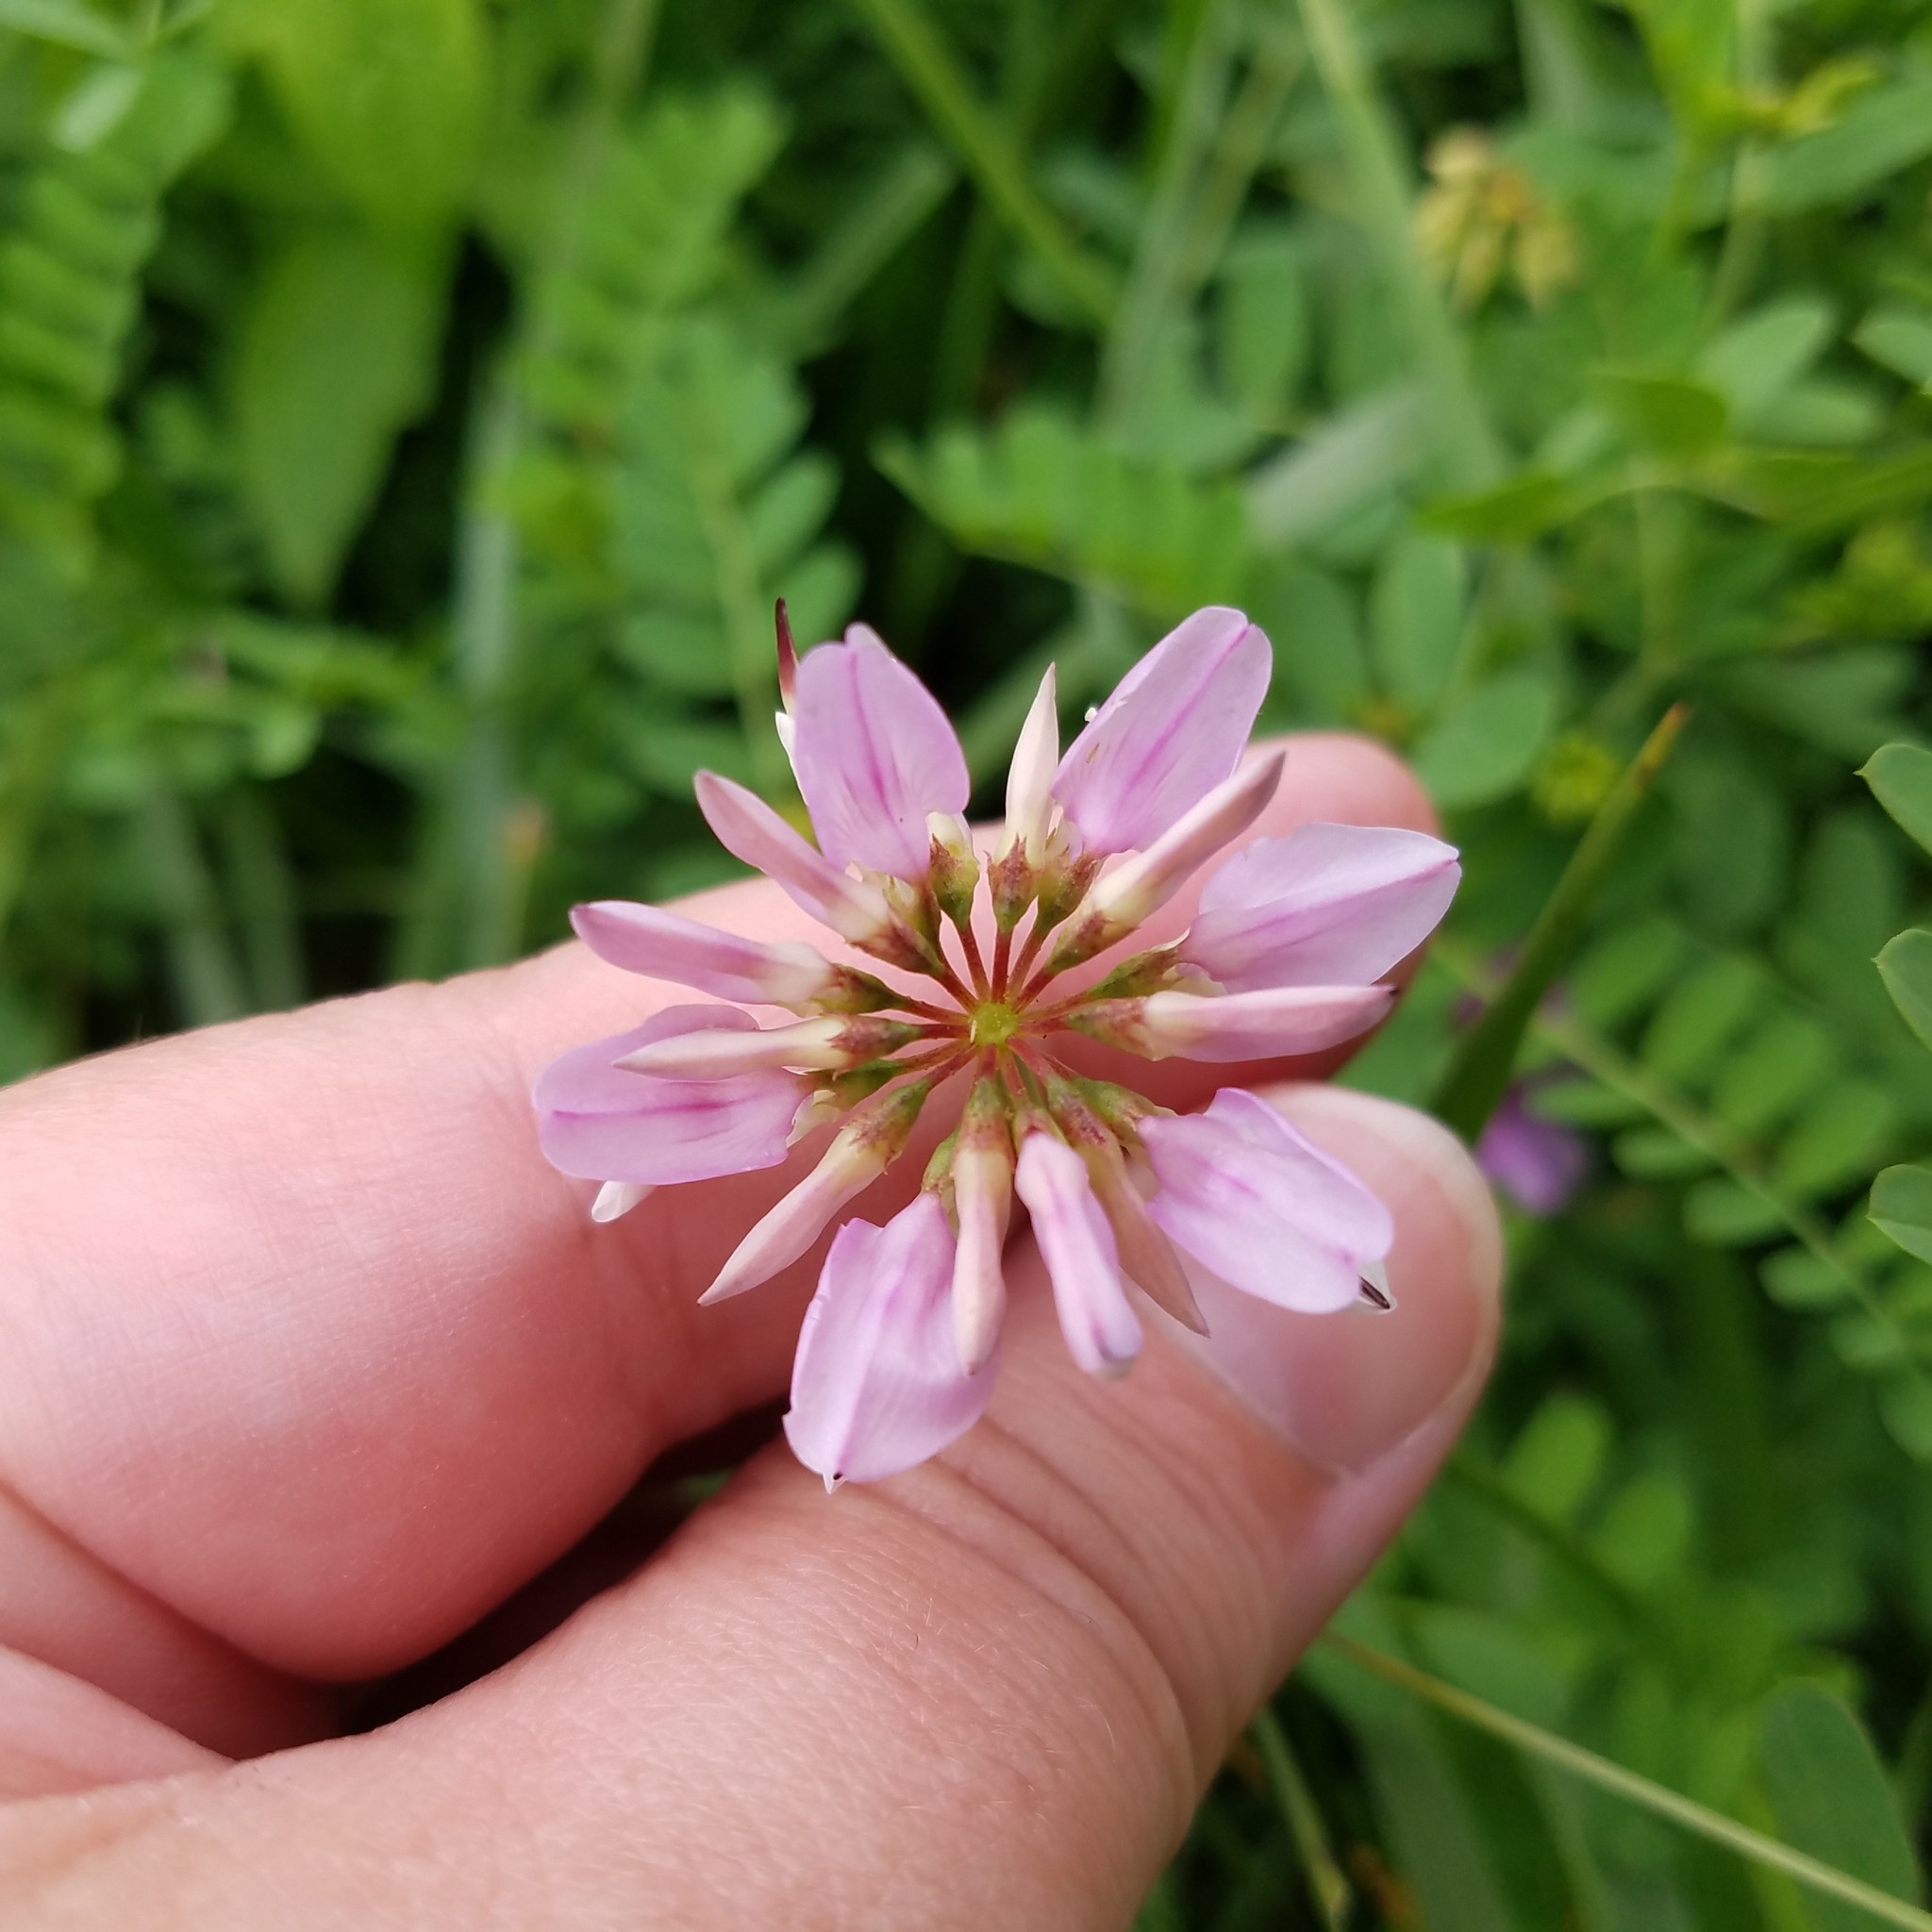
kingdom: Plantae
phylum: Tracheophyta
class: Magnoliopsida
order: Fabales
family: Fabaceae
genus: Coronilla
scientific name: Coronilla varia
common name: Crownvetch
